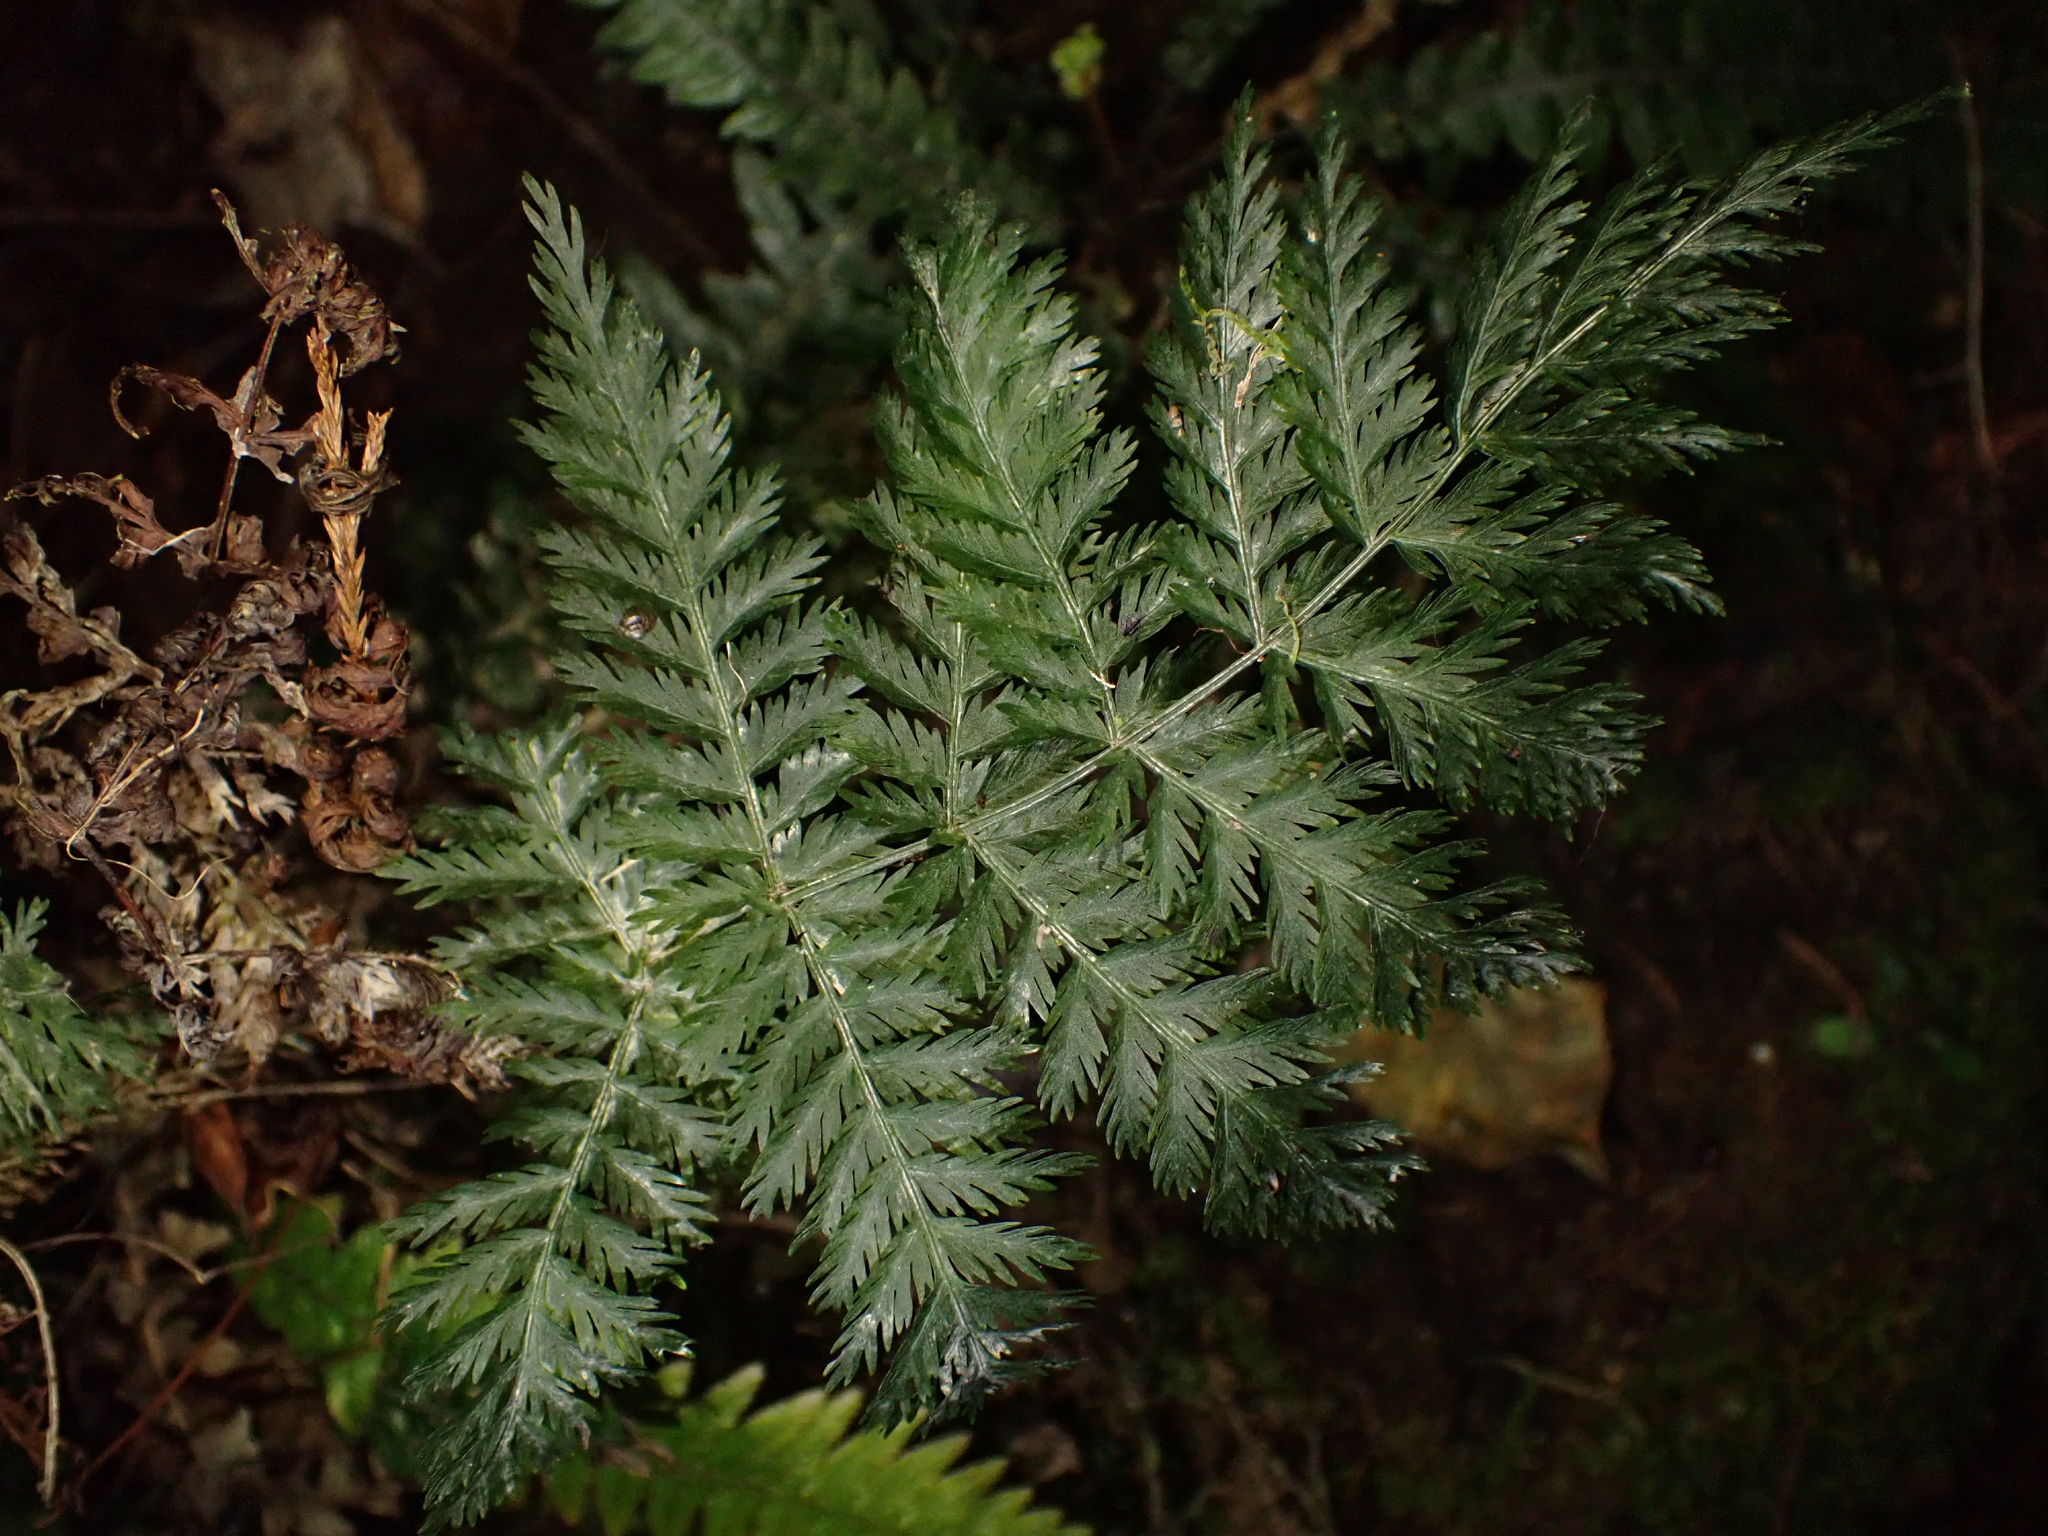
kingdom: Plantae
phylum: Tracheophyta
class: Polypodiopsida
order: Osmundales
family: Osmundaceae
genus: Leptopteris
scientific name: Leptopteris hymenophylloides
